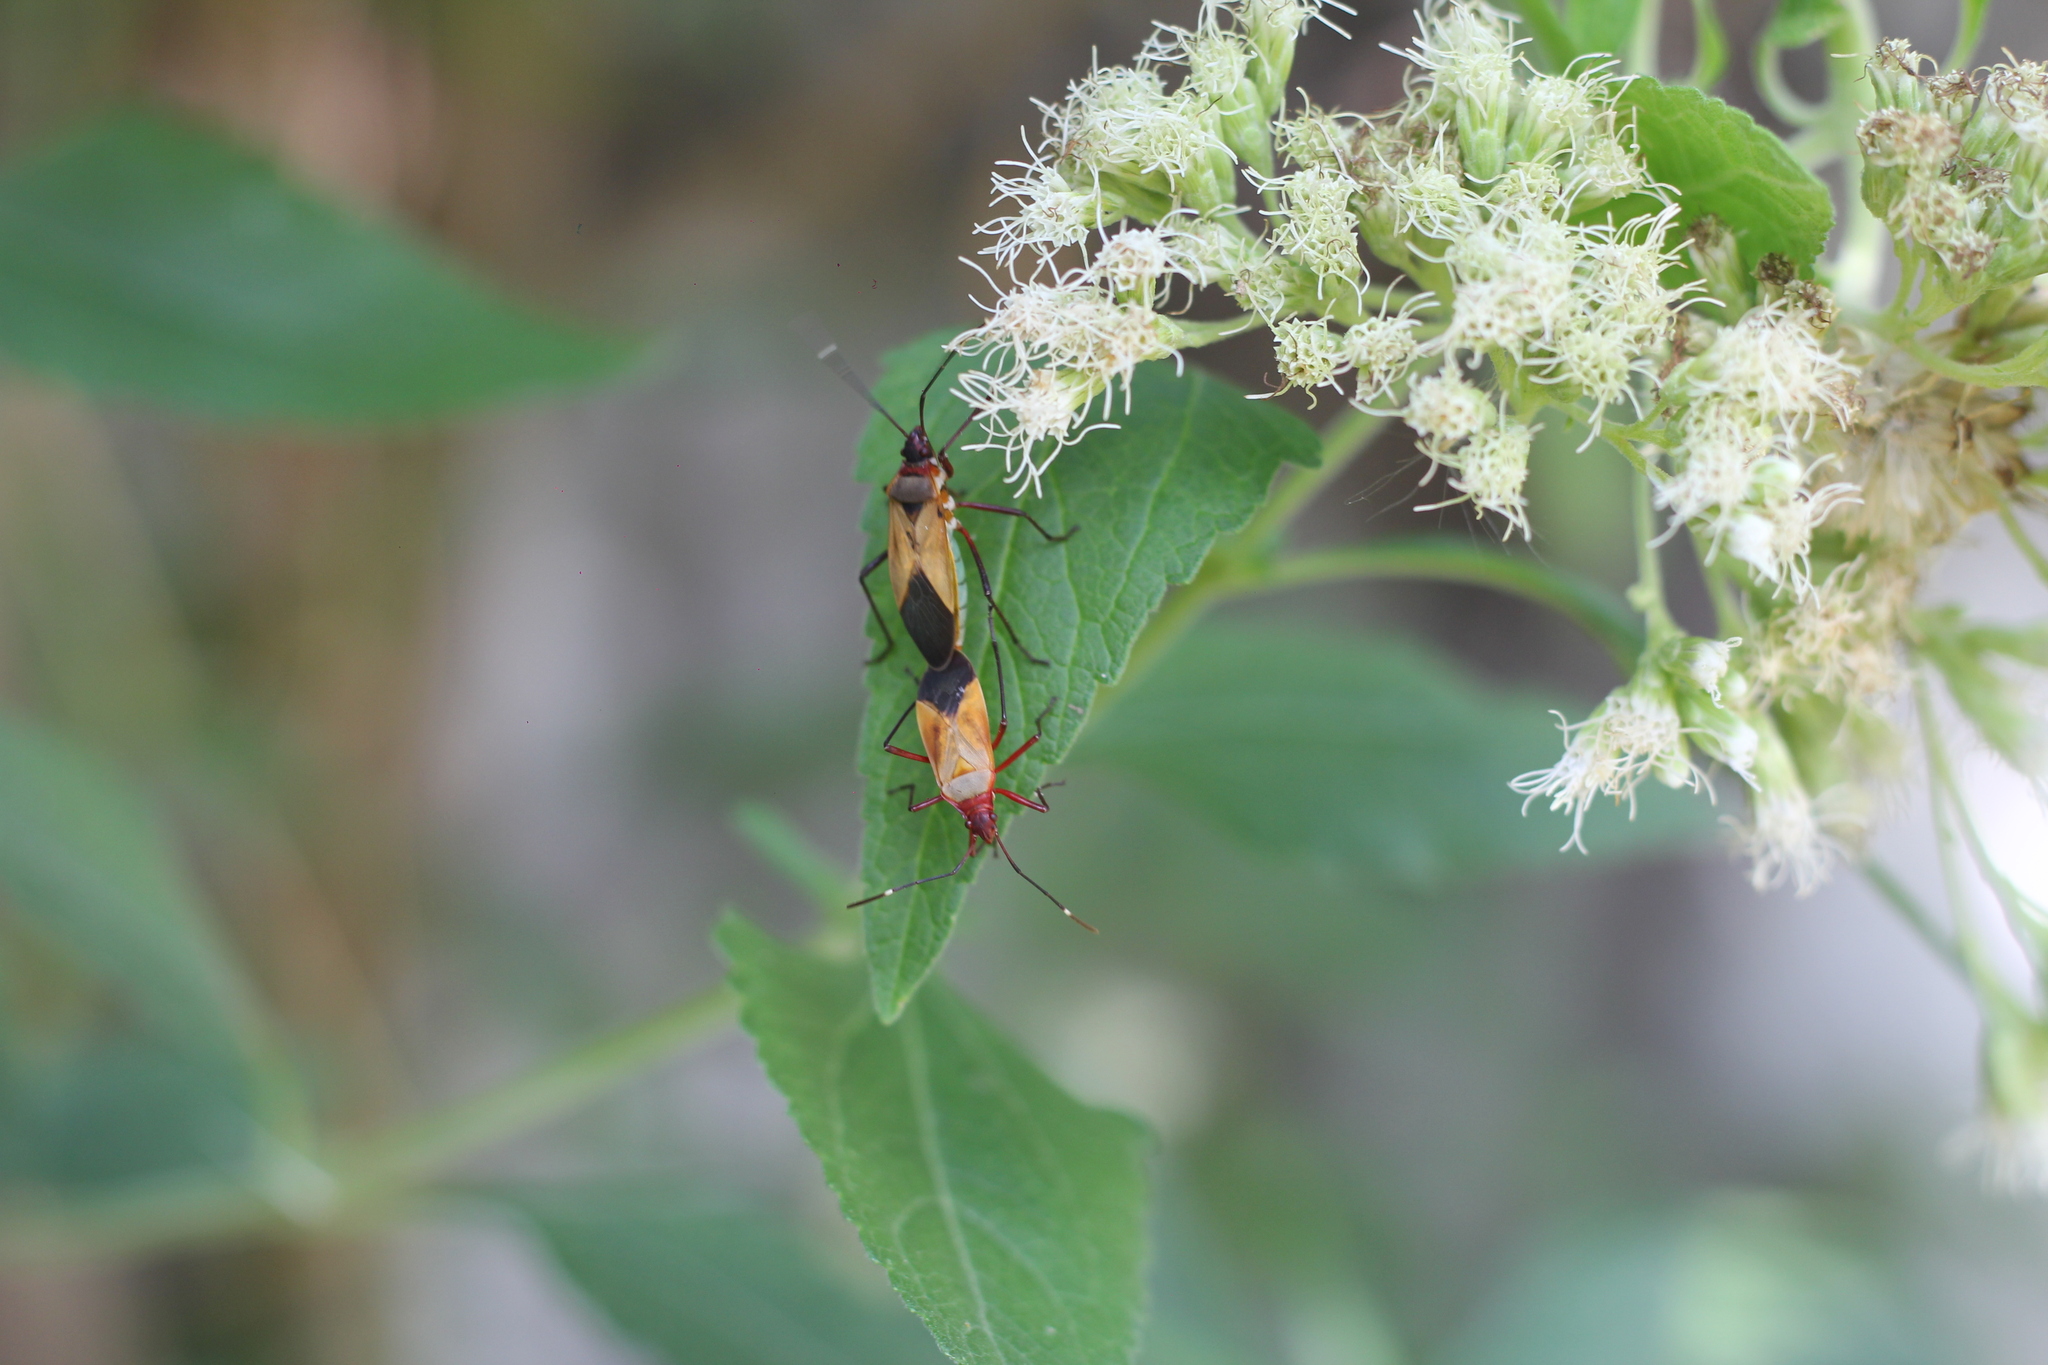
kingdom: Animalia
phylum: Arthropoda
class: Insecta
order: Hemiptera
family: Pyrrhocoridae
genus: Dysdercus
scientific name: Dysdercus
